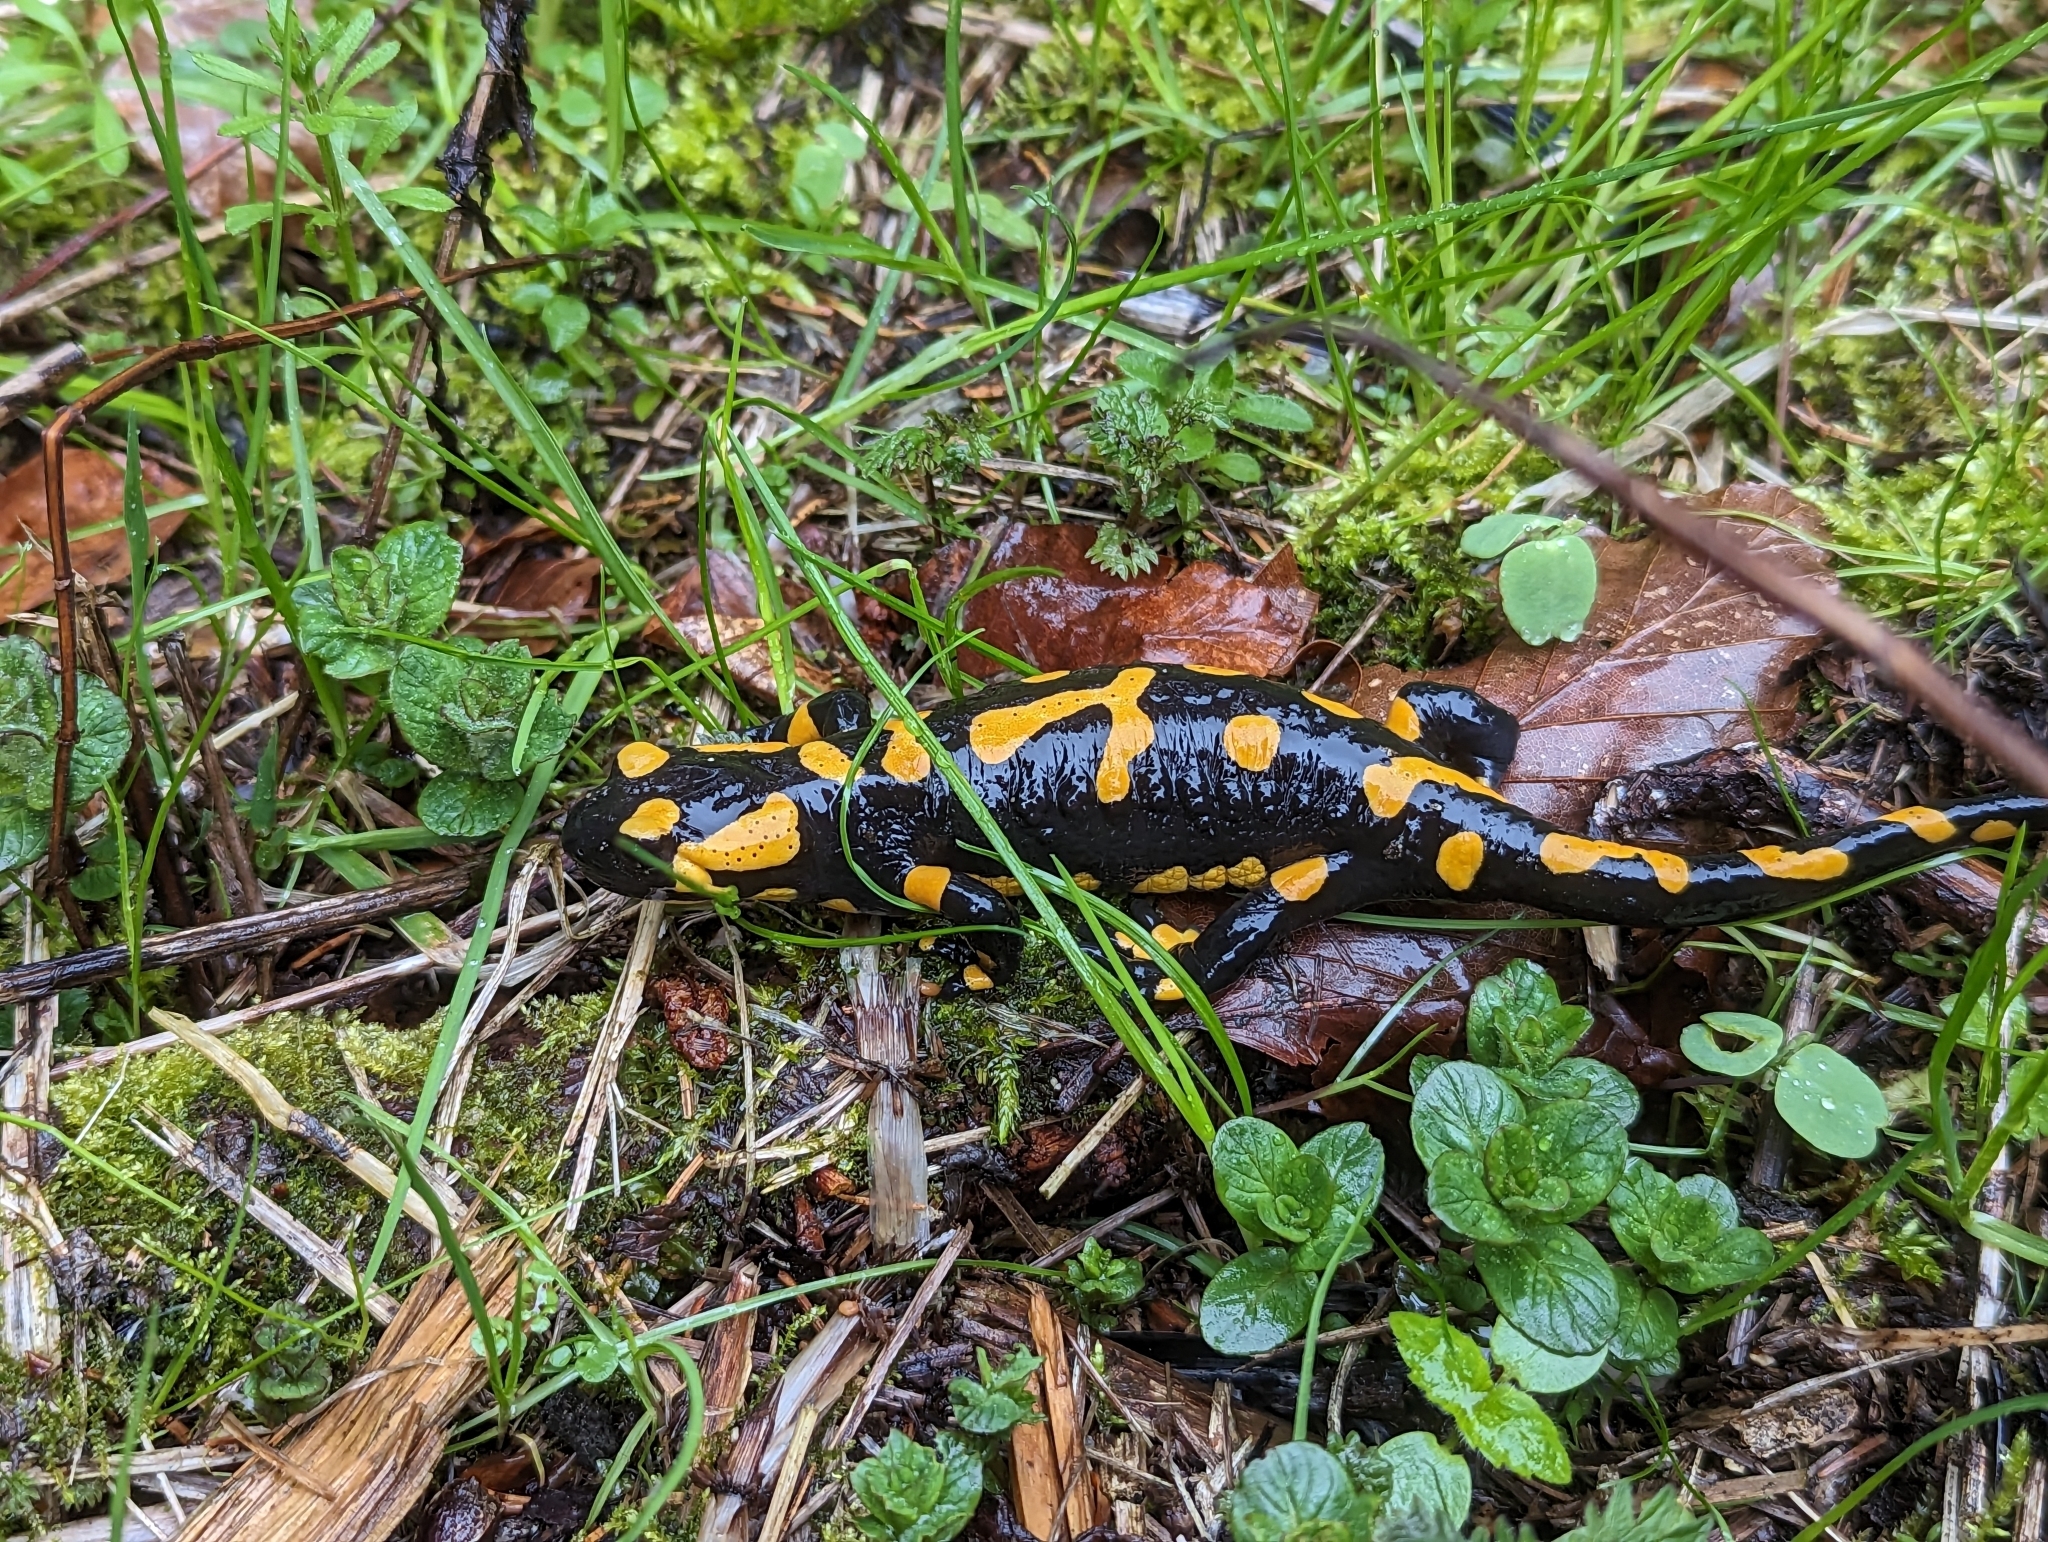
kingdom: Animalia
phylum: Chordata
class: Amphibia
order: Caudata
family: Salamandridae
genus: Salamandra
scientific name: Salamandra salamandra
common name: Fire salamander
